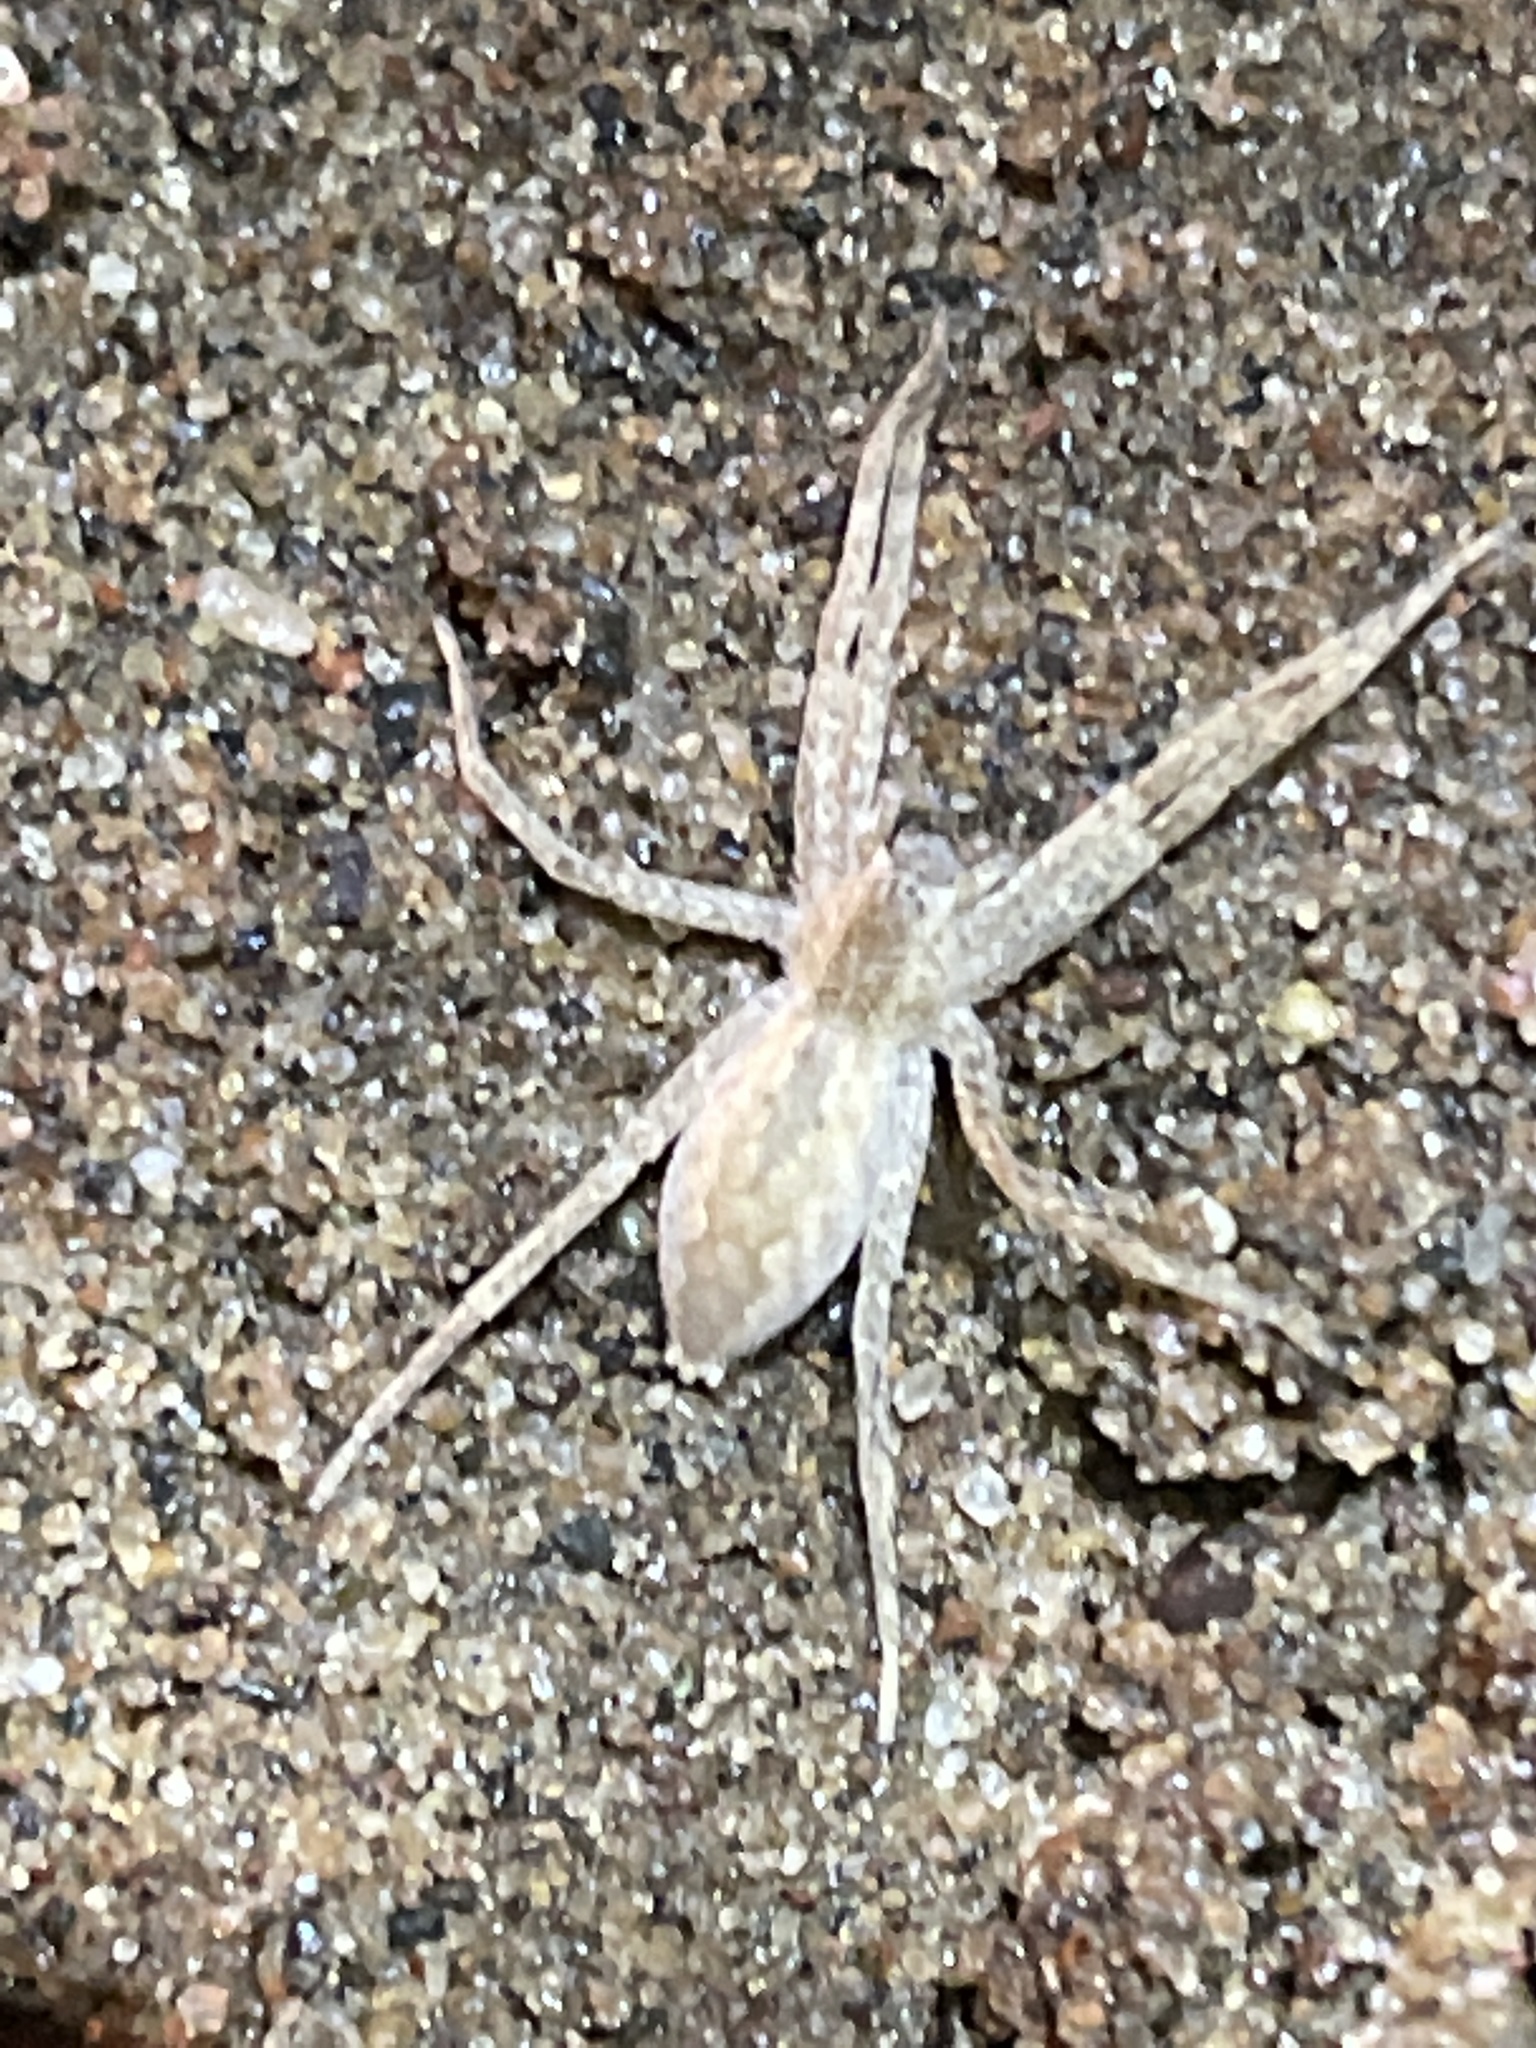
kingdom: Animalia
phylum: Arthropoda
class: Arachnida
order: Araneae
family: Pisauridae
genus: Pisaurina
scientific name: Pisaurina mira
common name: American nursery web spider
